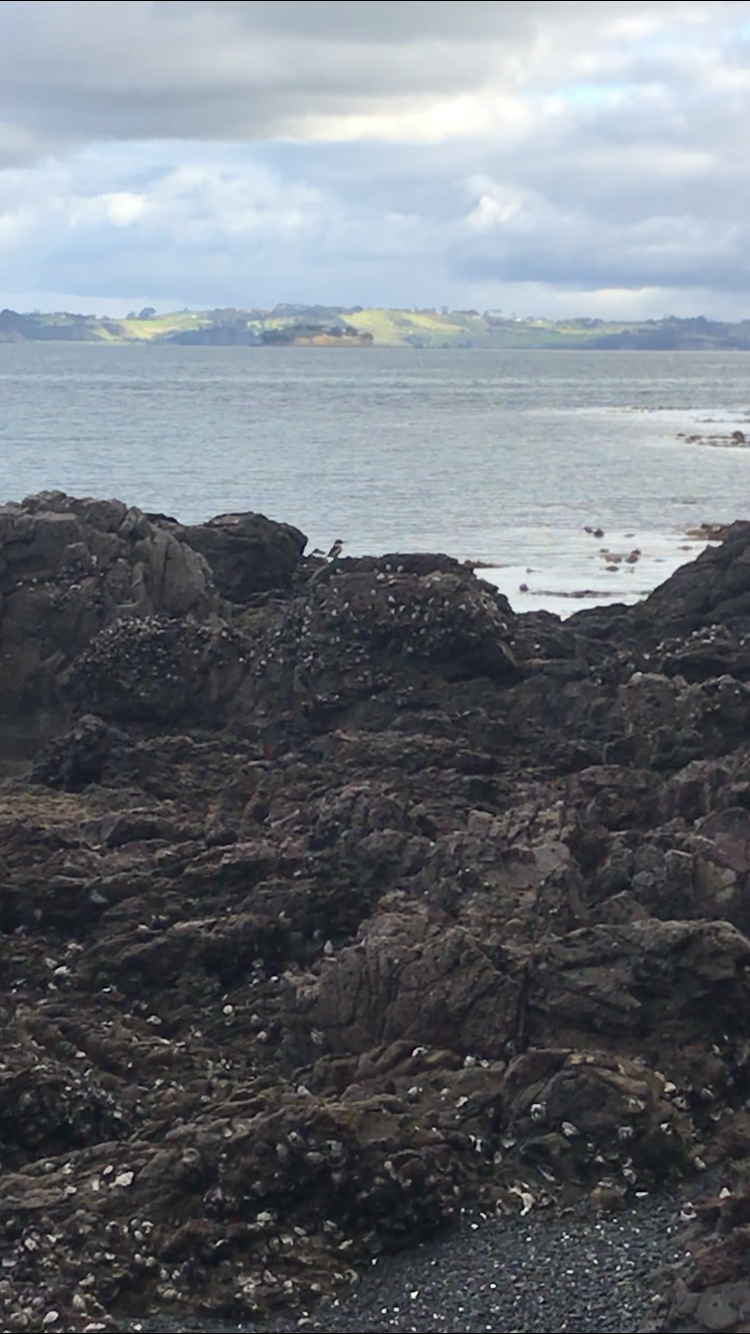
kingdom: Animalia
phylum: Chordata
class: Aves
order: Coraciiformes
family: Alcedinidae
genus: Todiramphus
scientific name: Todiramphus sanctus
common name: Sacred kingfisher
